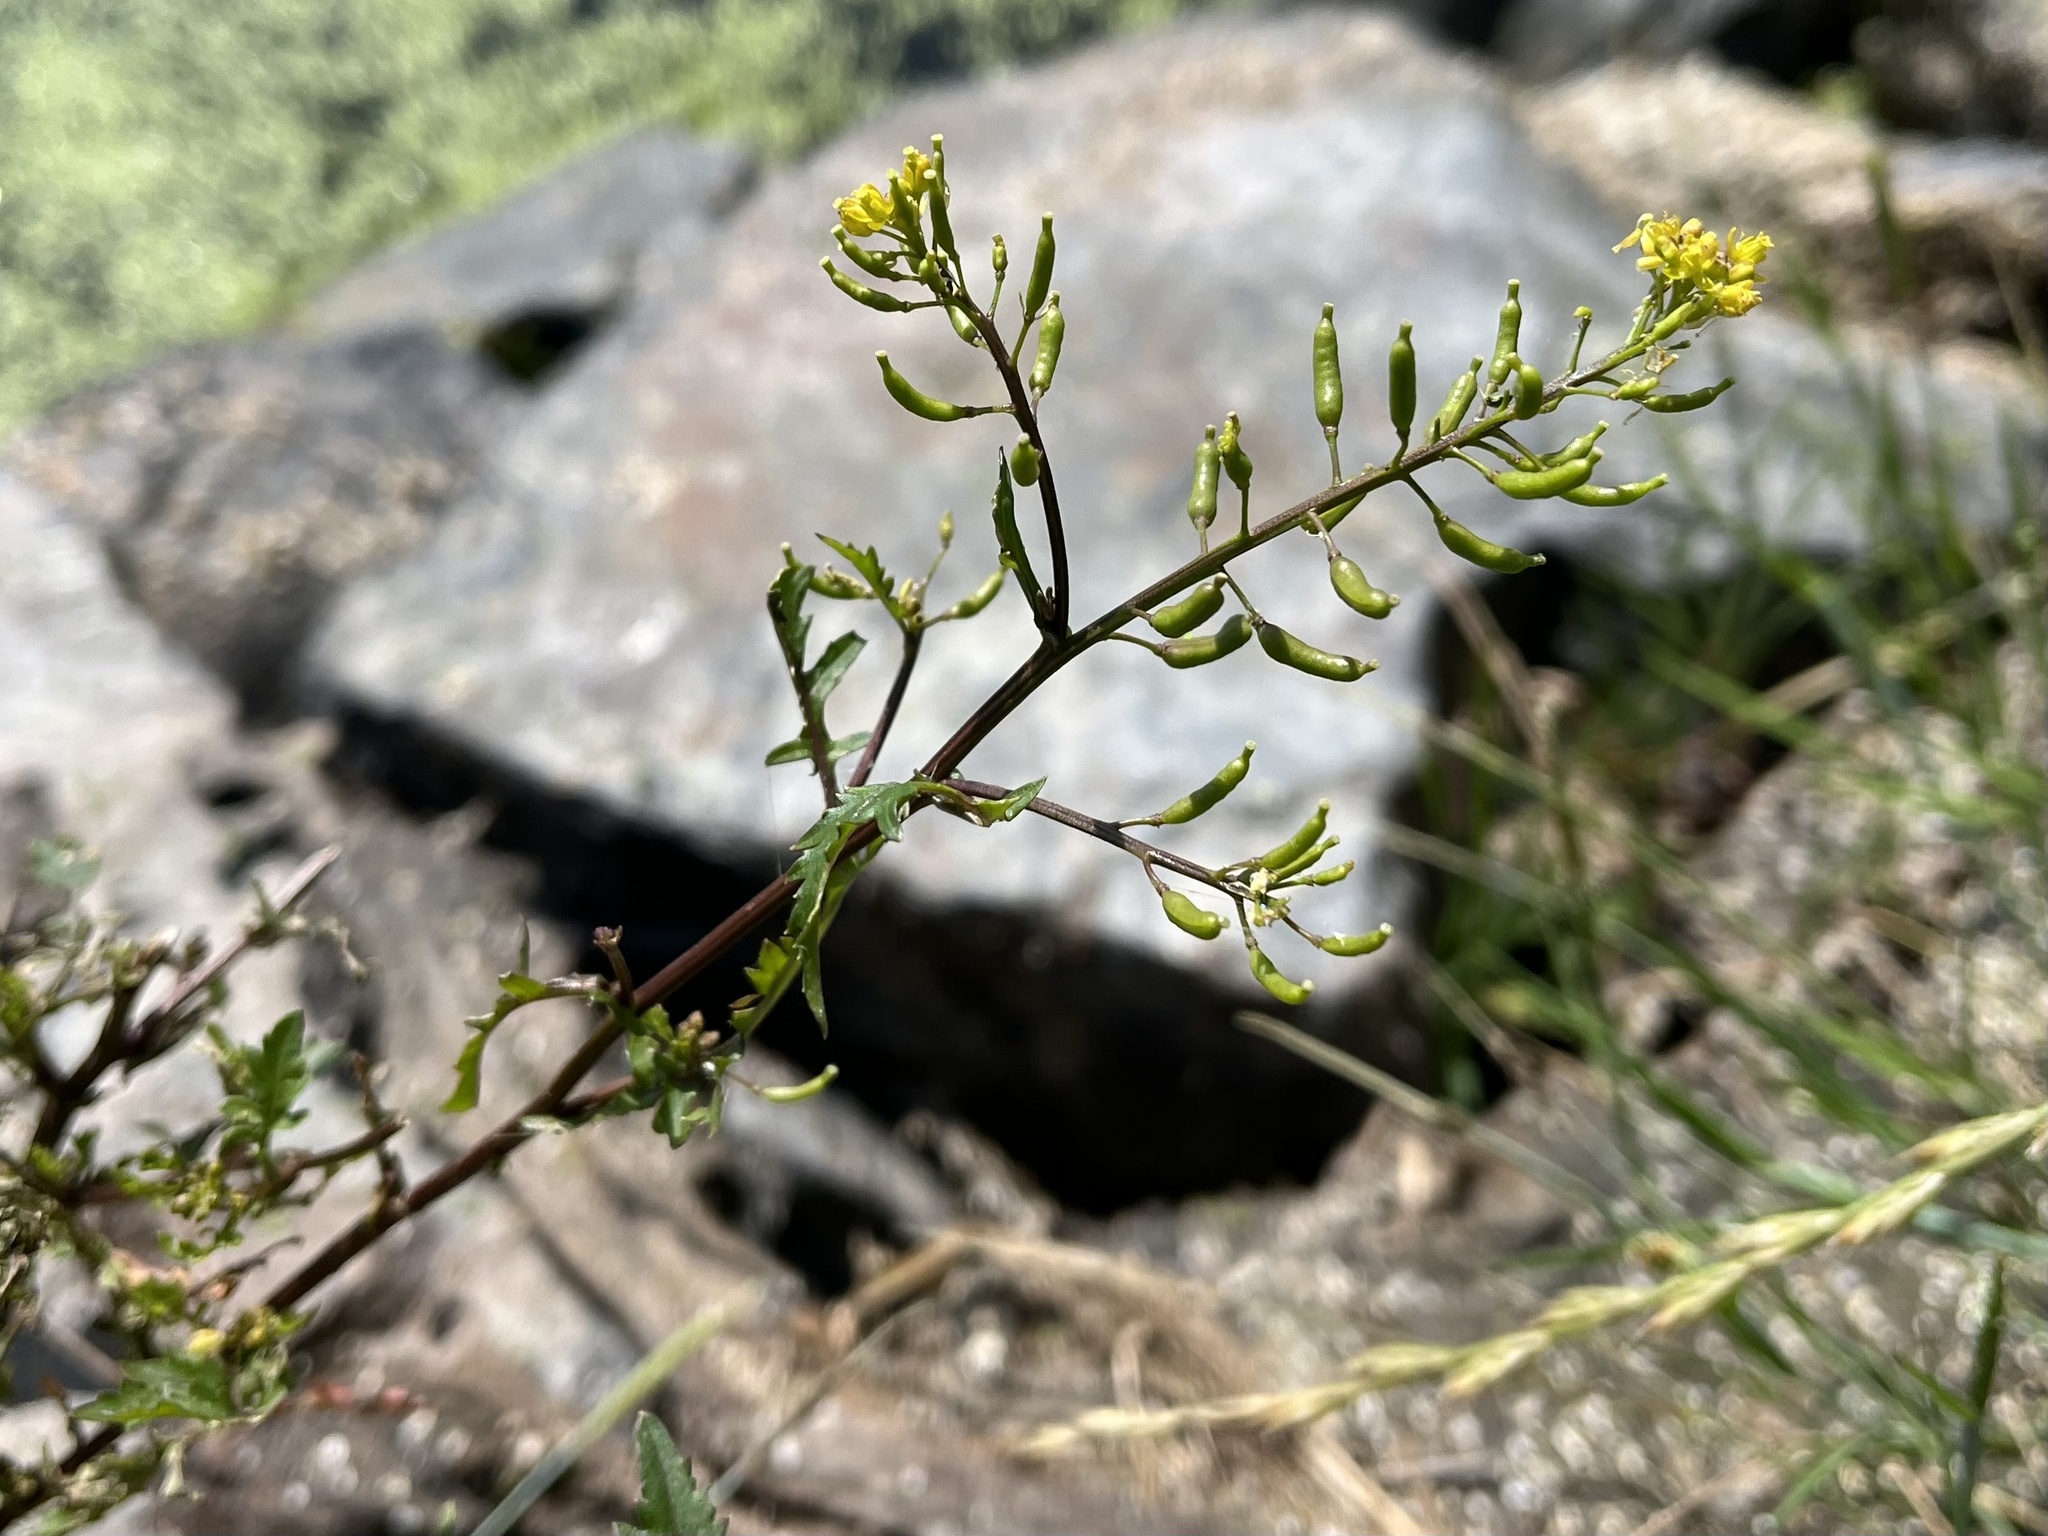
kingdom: Plantae
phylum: Tracheophyta
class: Magnoliopsida
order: Brassicales
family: Brassicaceae
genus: Rorippa
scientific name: Rorippa palustris
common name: Marsh yellow-cress
